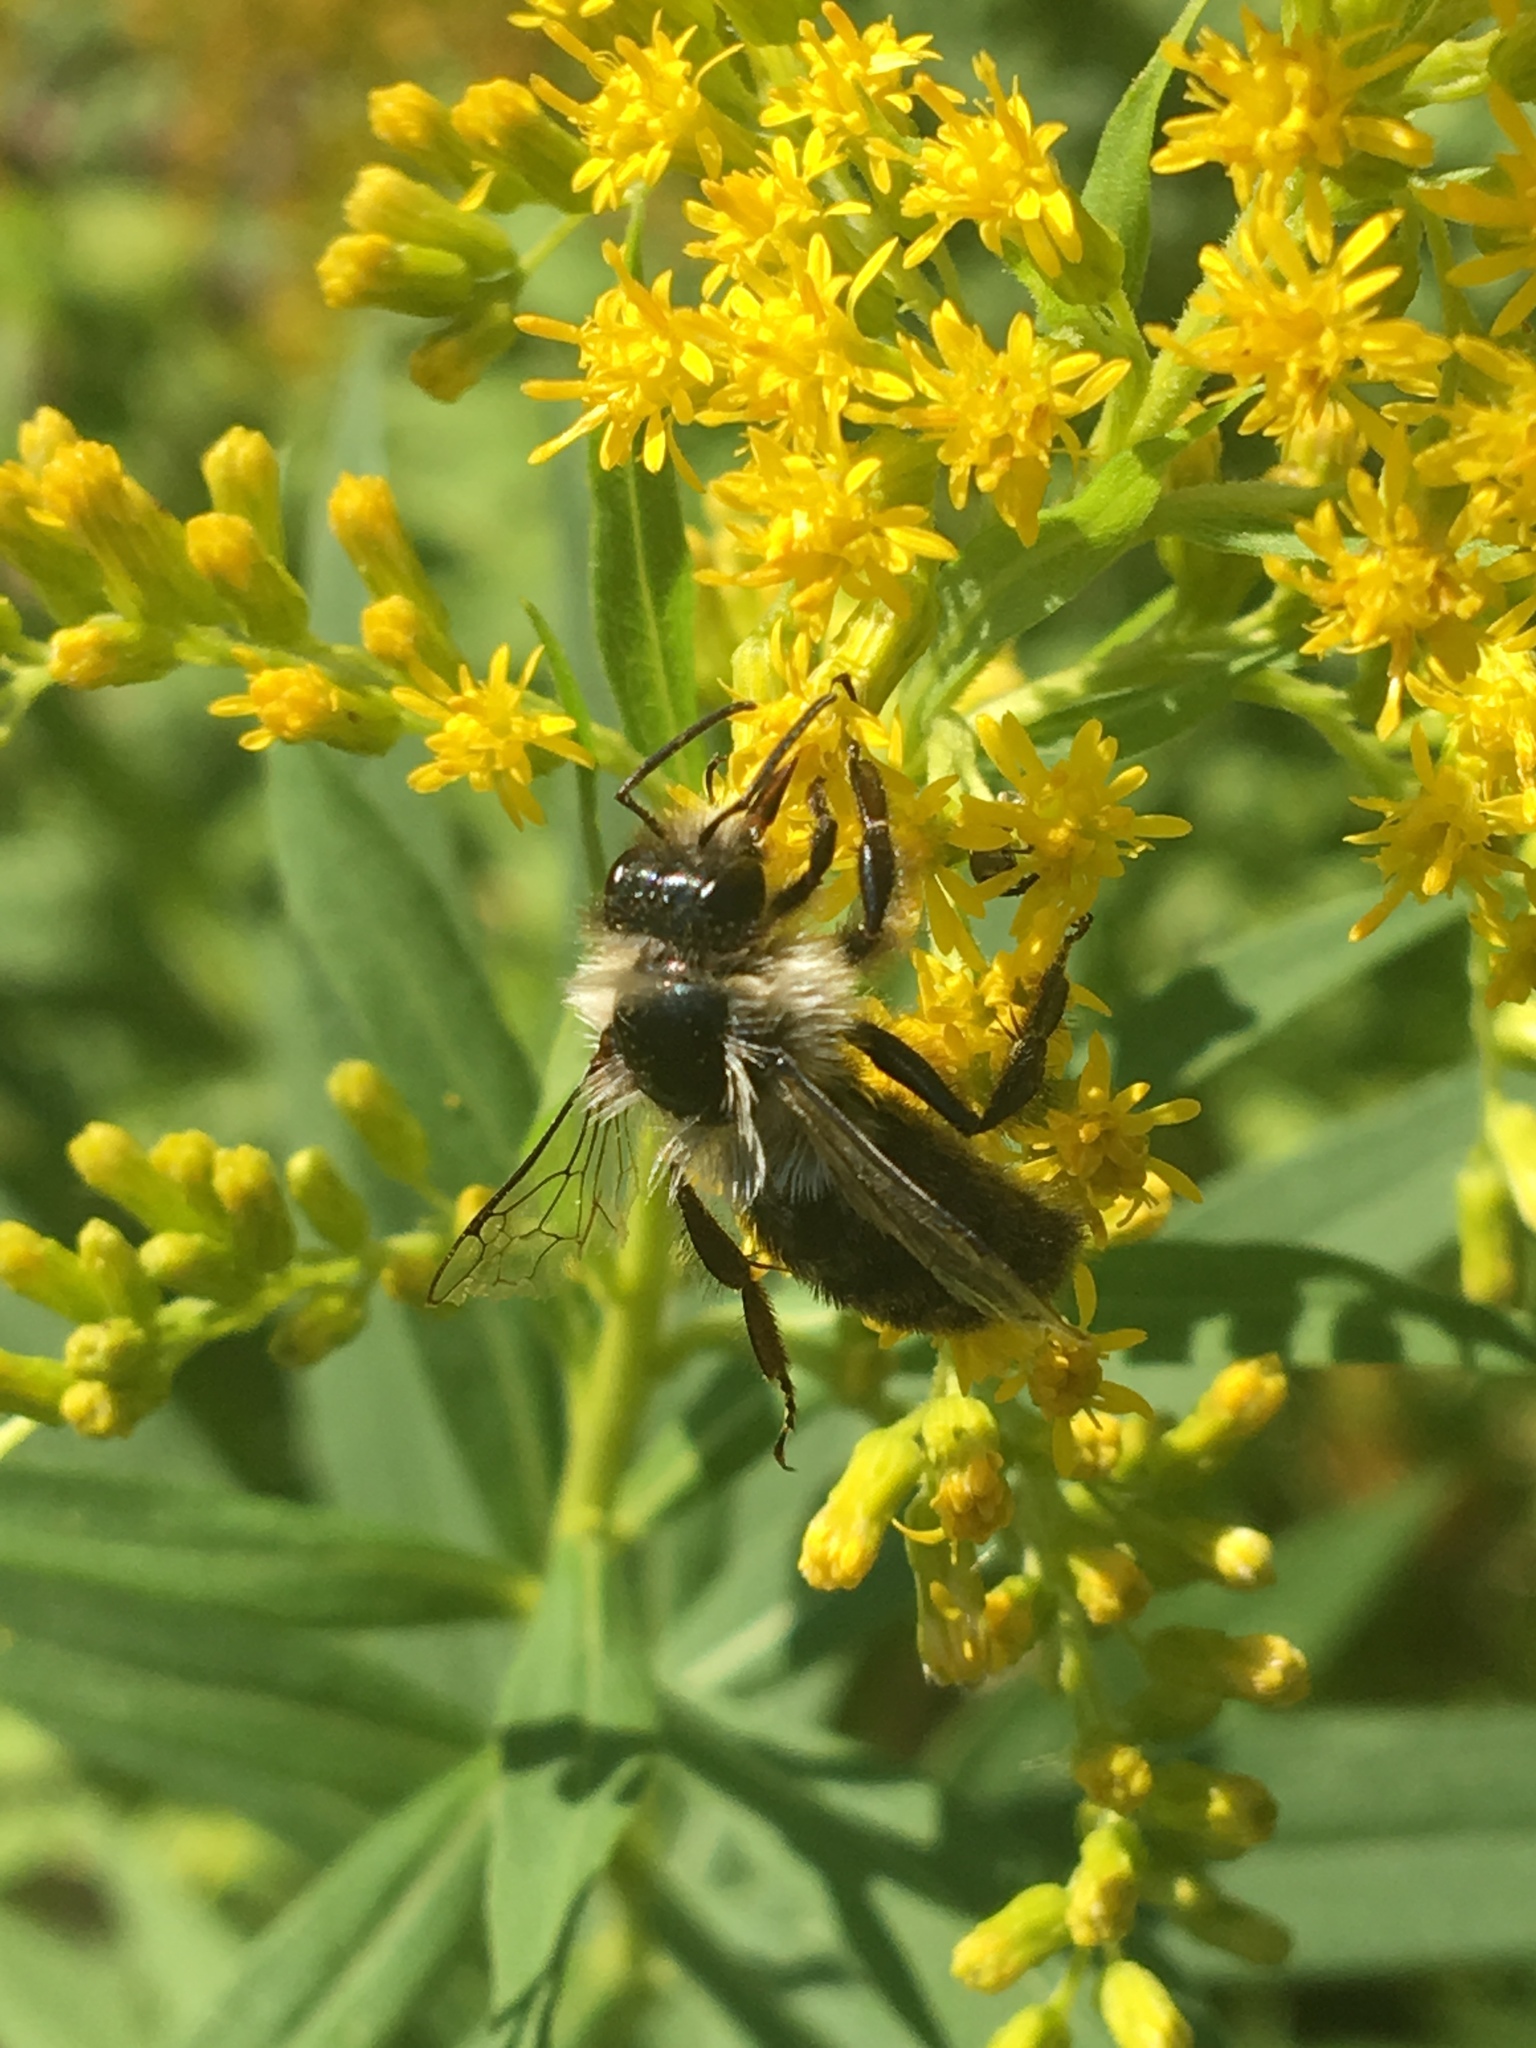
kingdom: Animalia
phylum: Arthropoda
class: Insecta
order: Hymenoptera
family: Apidae
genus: Bombus
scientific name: Bombus impatiens
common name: Common eastern bumble bee
